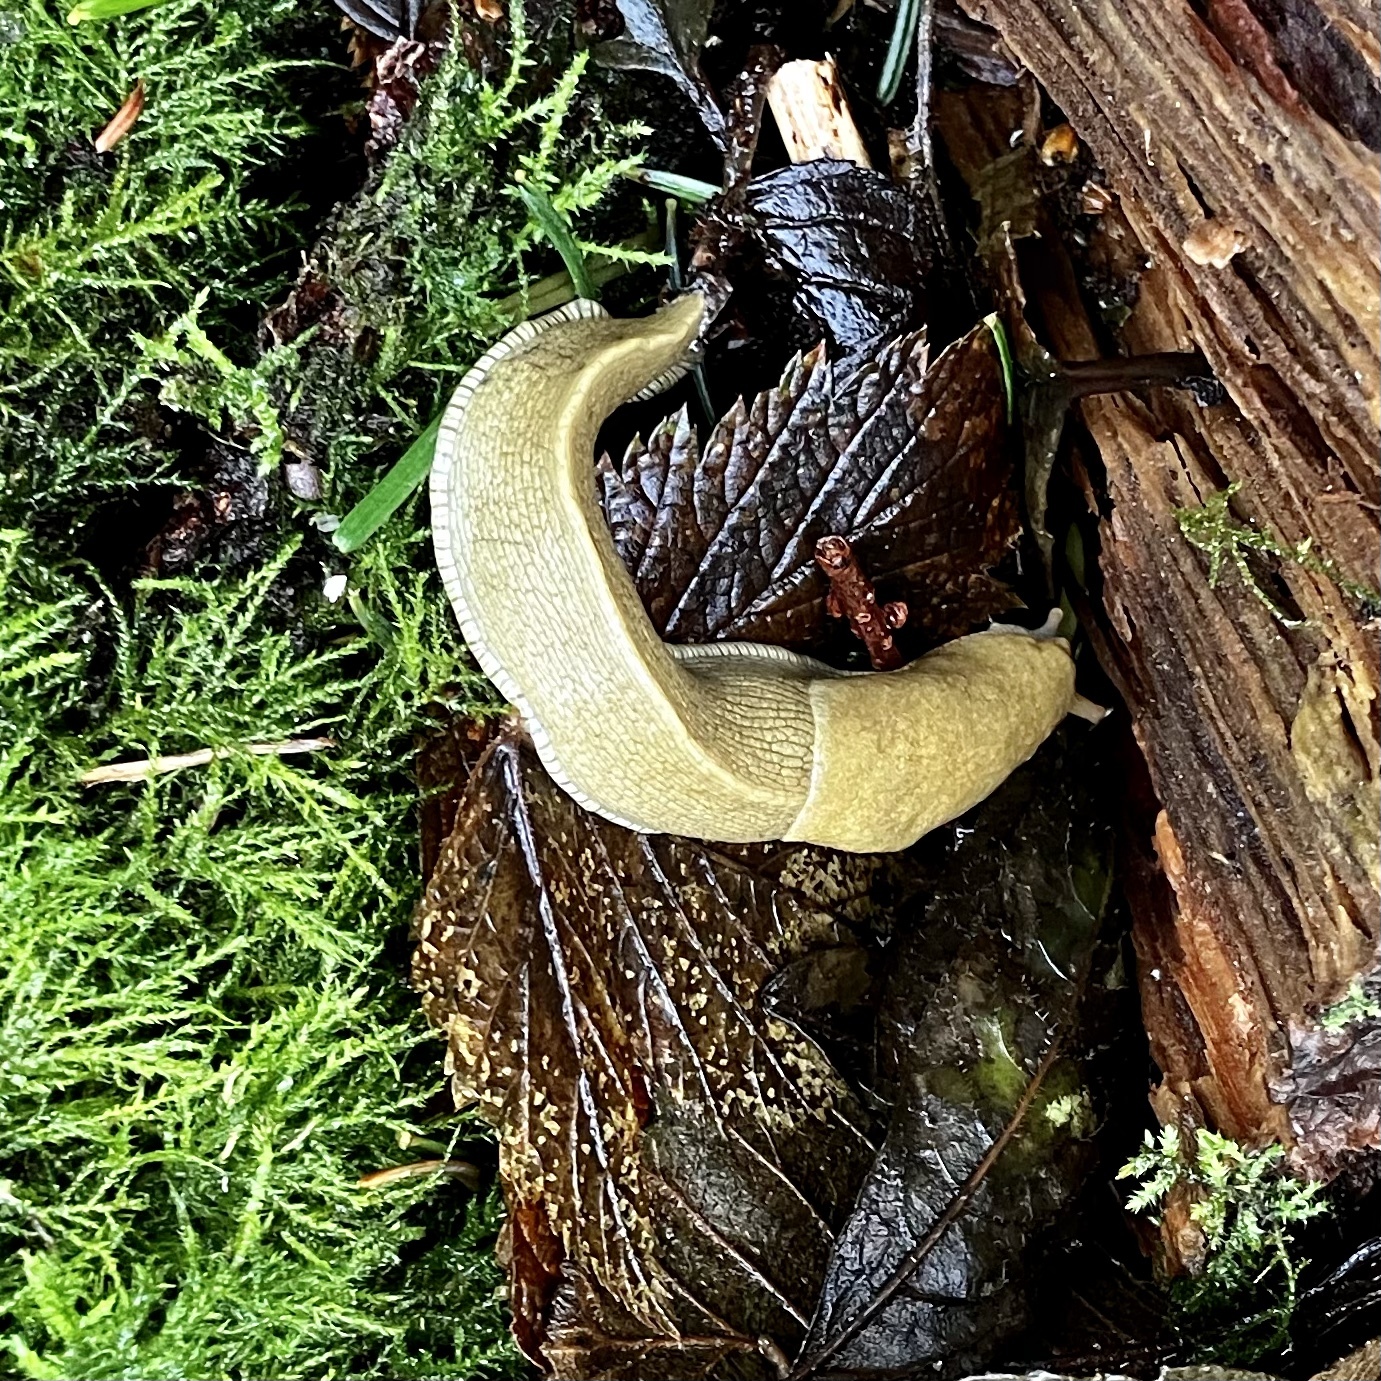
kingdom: Animalia
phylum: Mollusca
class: Gastropoda
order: Stylommatophora
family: Ariolimacidae
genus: Ariolimax
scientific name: Ariolimax columbianus
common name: Pacific banana slug
